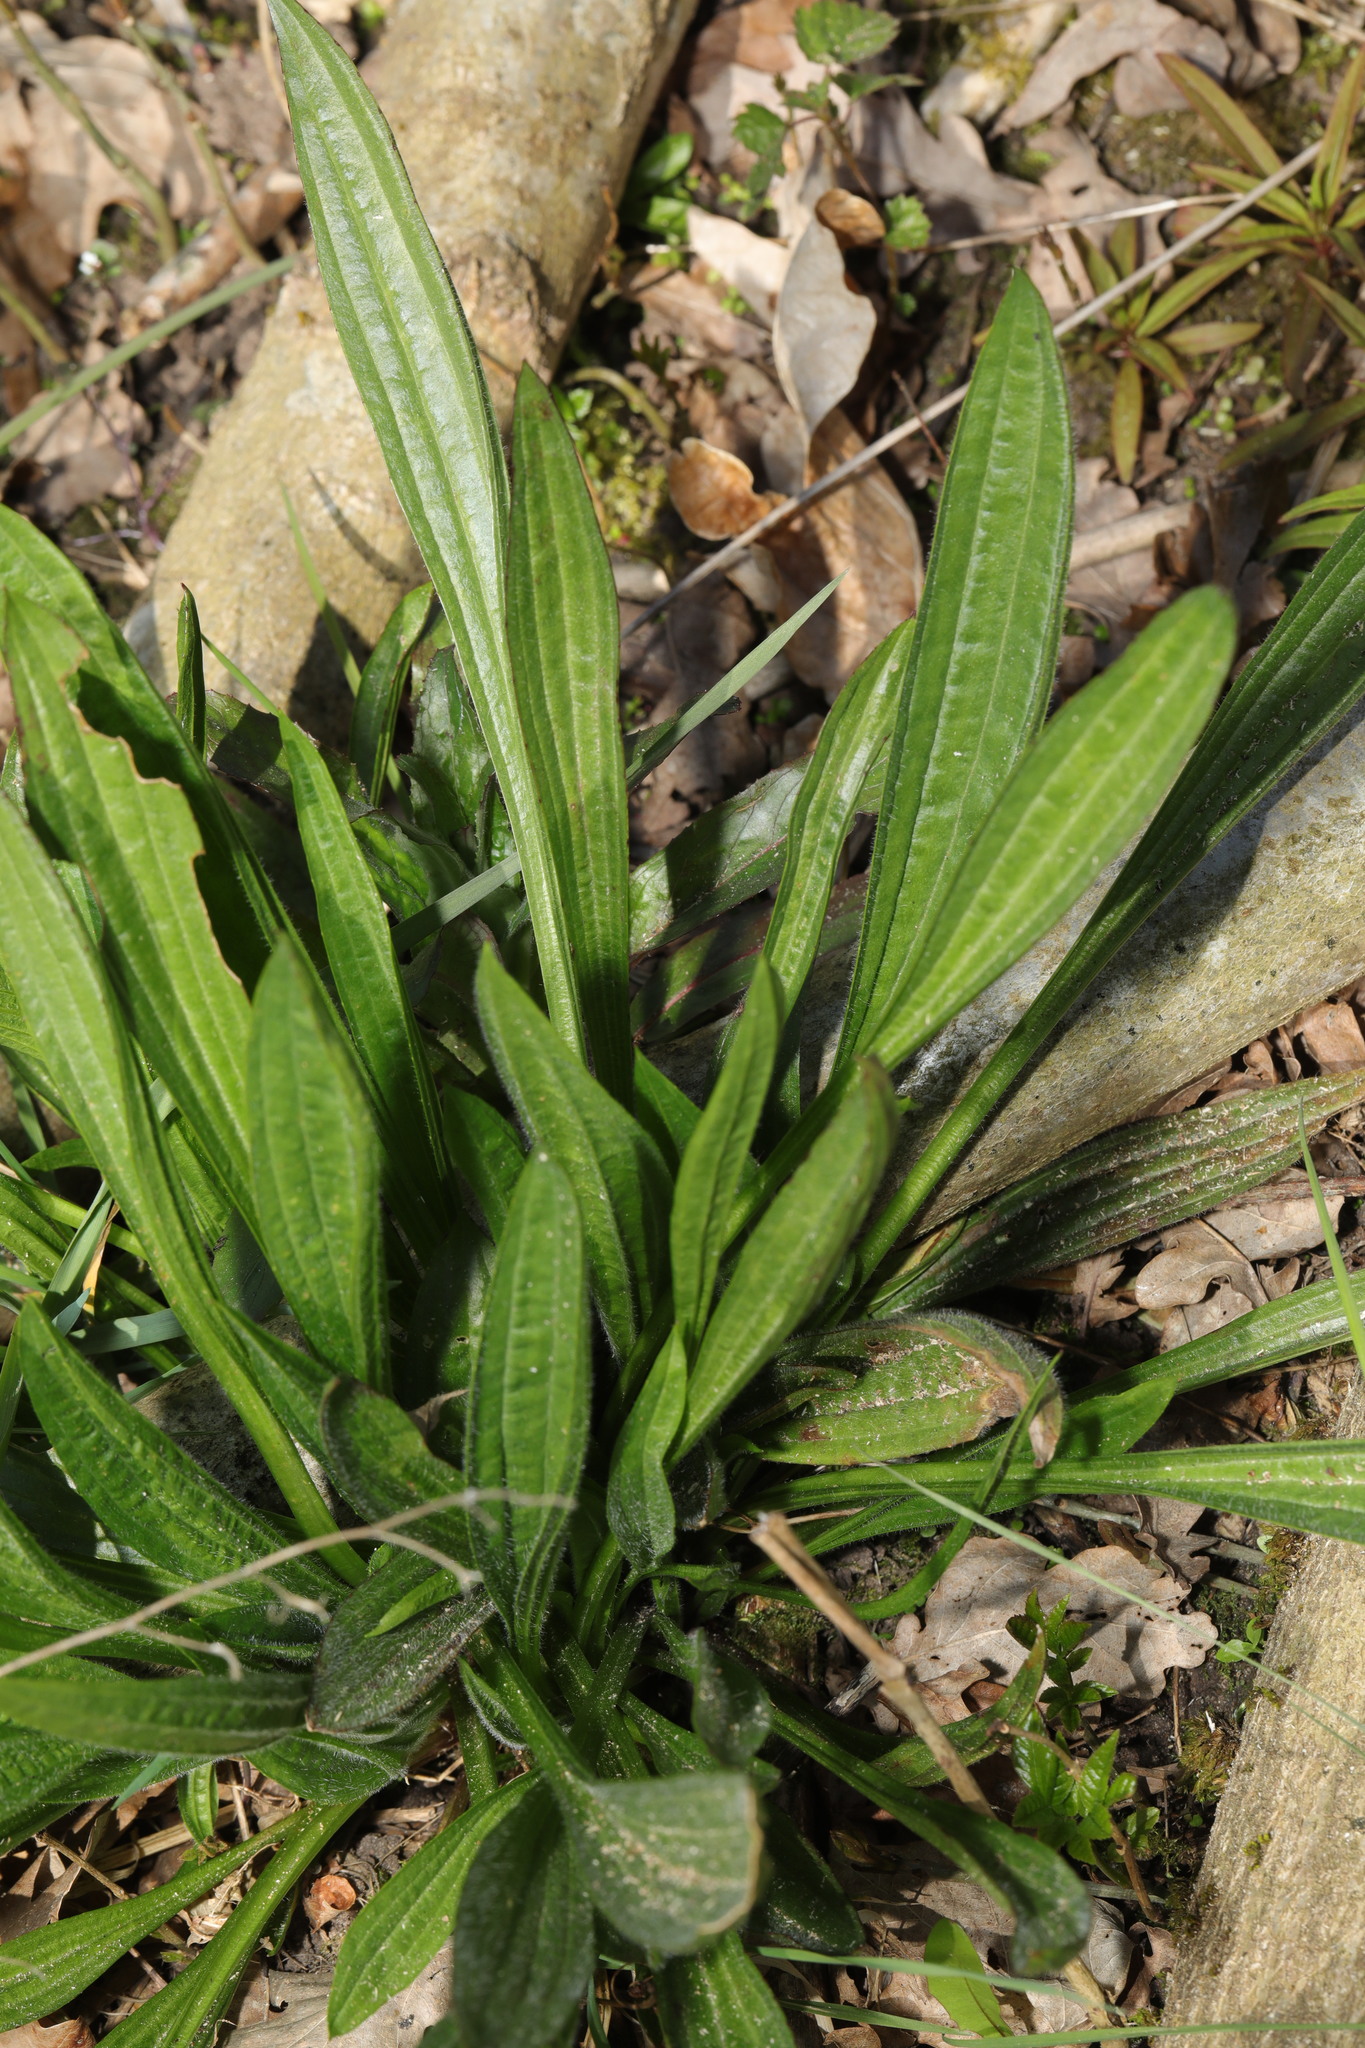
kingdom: Plantae
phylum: Tracheophyta
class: Magnoliopsida
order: Lamiales
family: Plantaginaceae
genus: Plantago
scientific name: Plantago lanceolata
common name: Ribwort plantain
